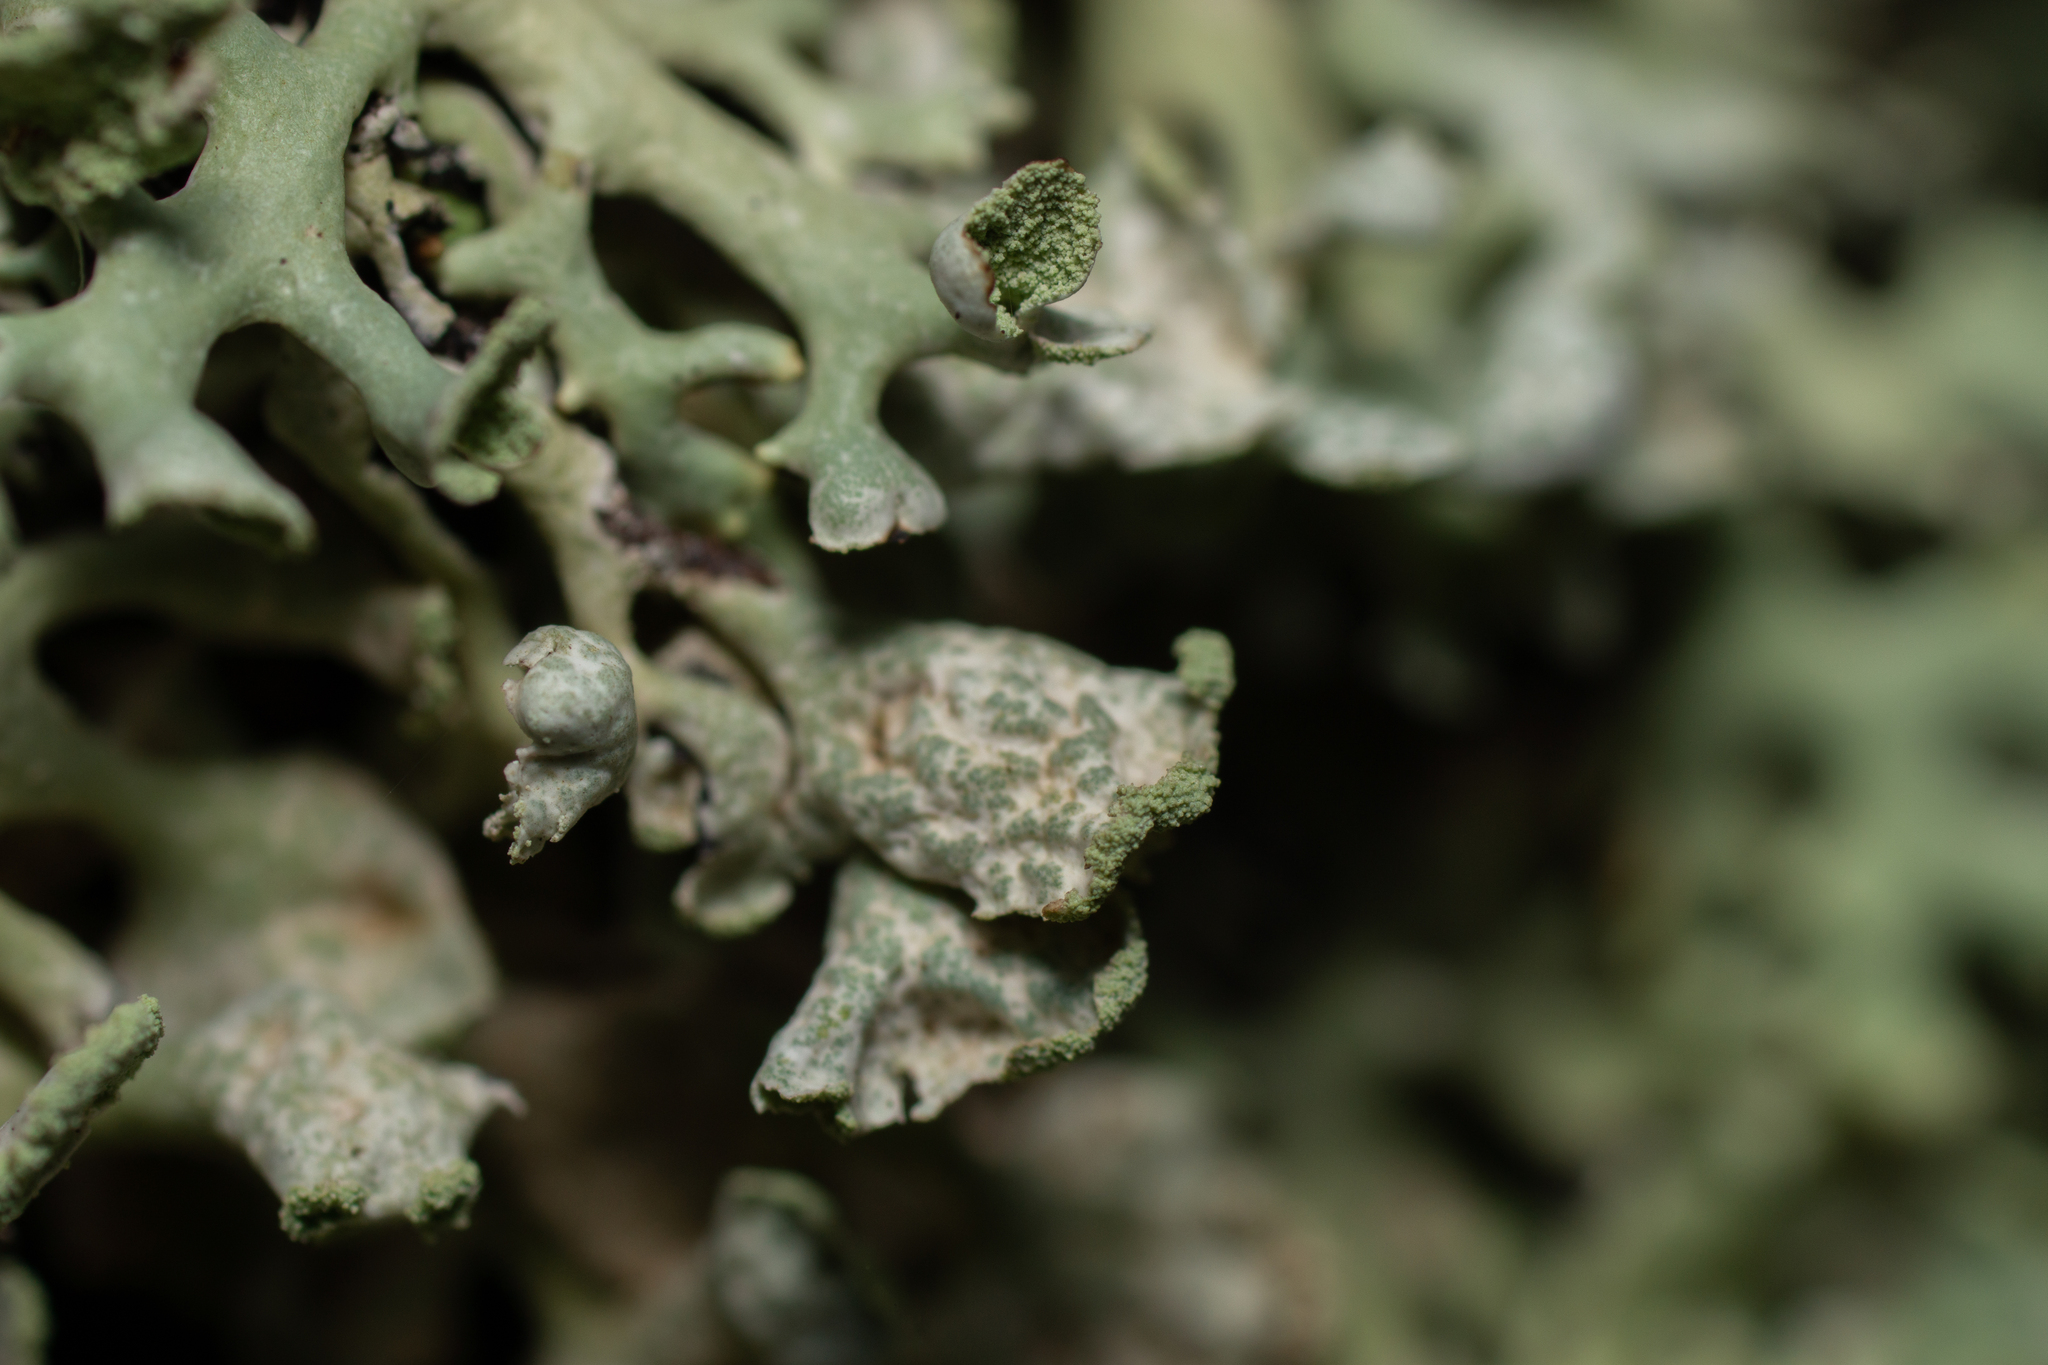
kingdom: Fungi
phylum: Ascomycota
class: Lecanoromycetes
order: Lecanorales
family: Parmeliaceae
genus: Hypogymnia
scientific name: Hypogymnia physodes
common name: Dark crottle
